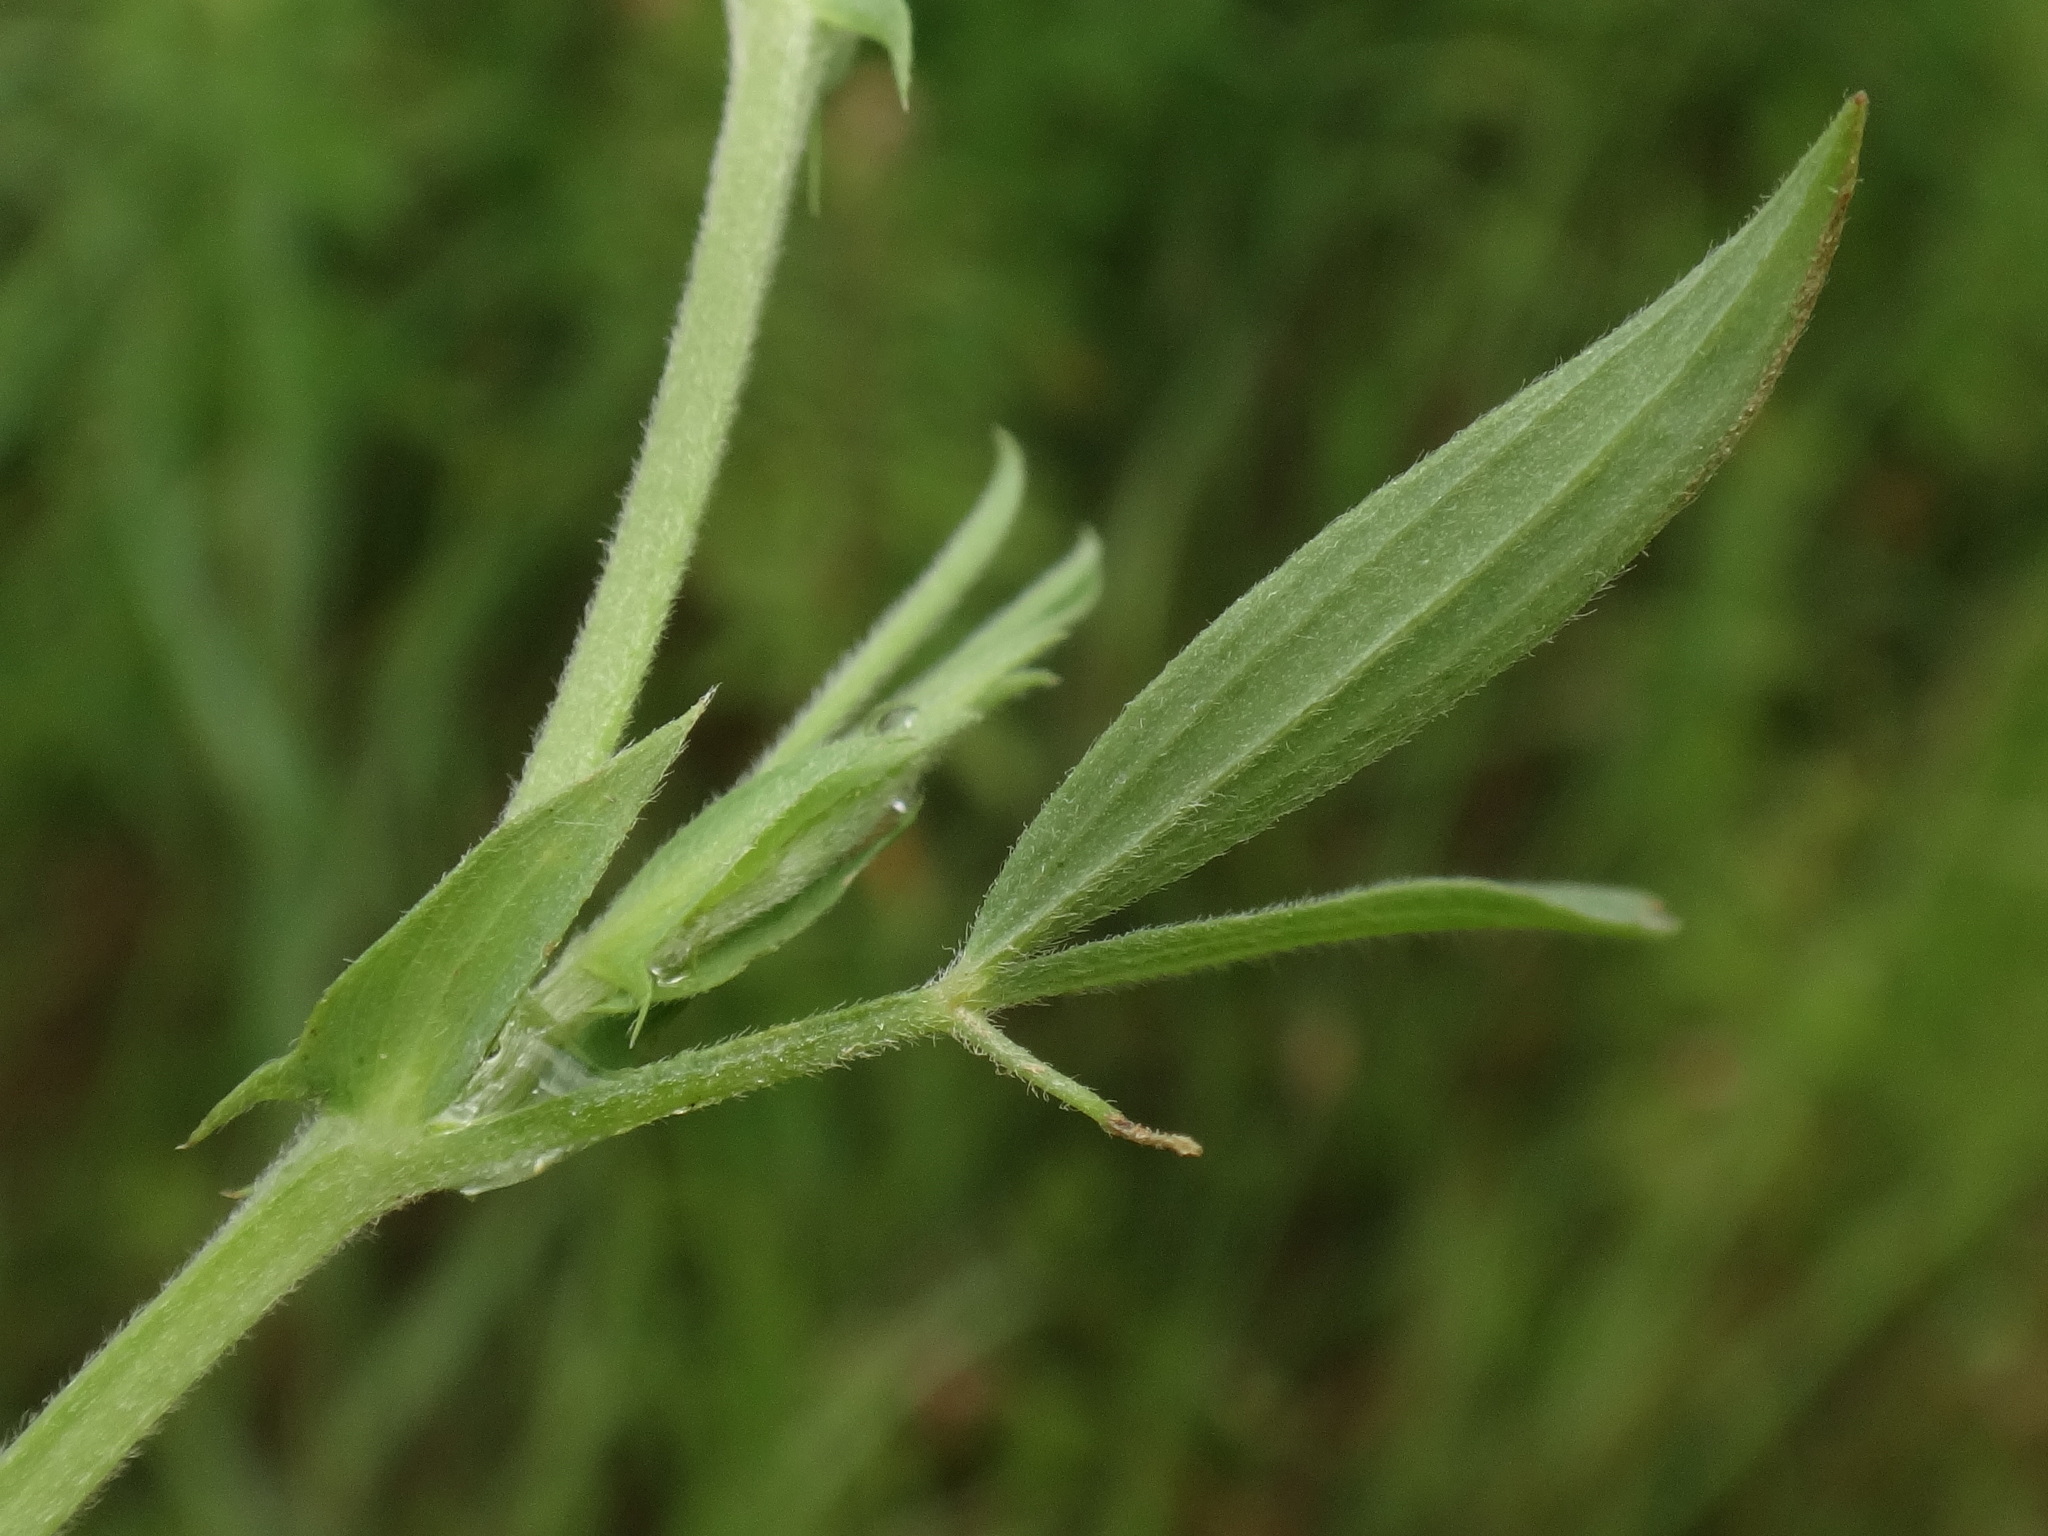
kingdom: Plantae
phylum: Tracheophyta
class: Magnoliopsida
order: Fabales
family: Fabaceae
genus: Lathyrus
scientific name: Lathyrus pratensis
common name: Meadow vetchling
